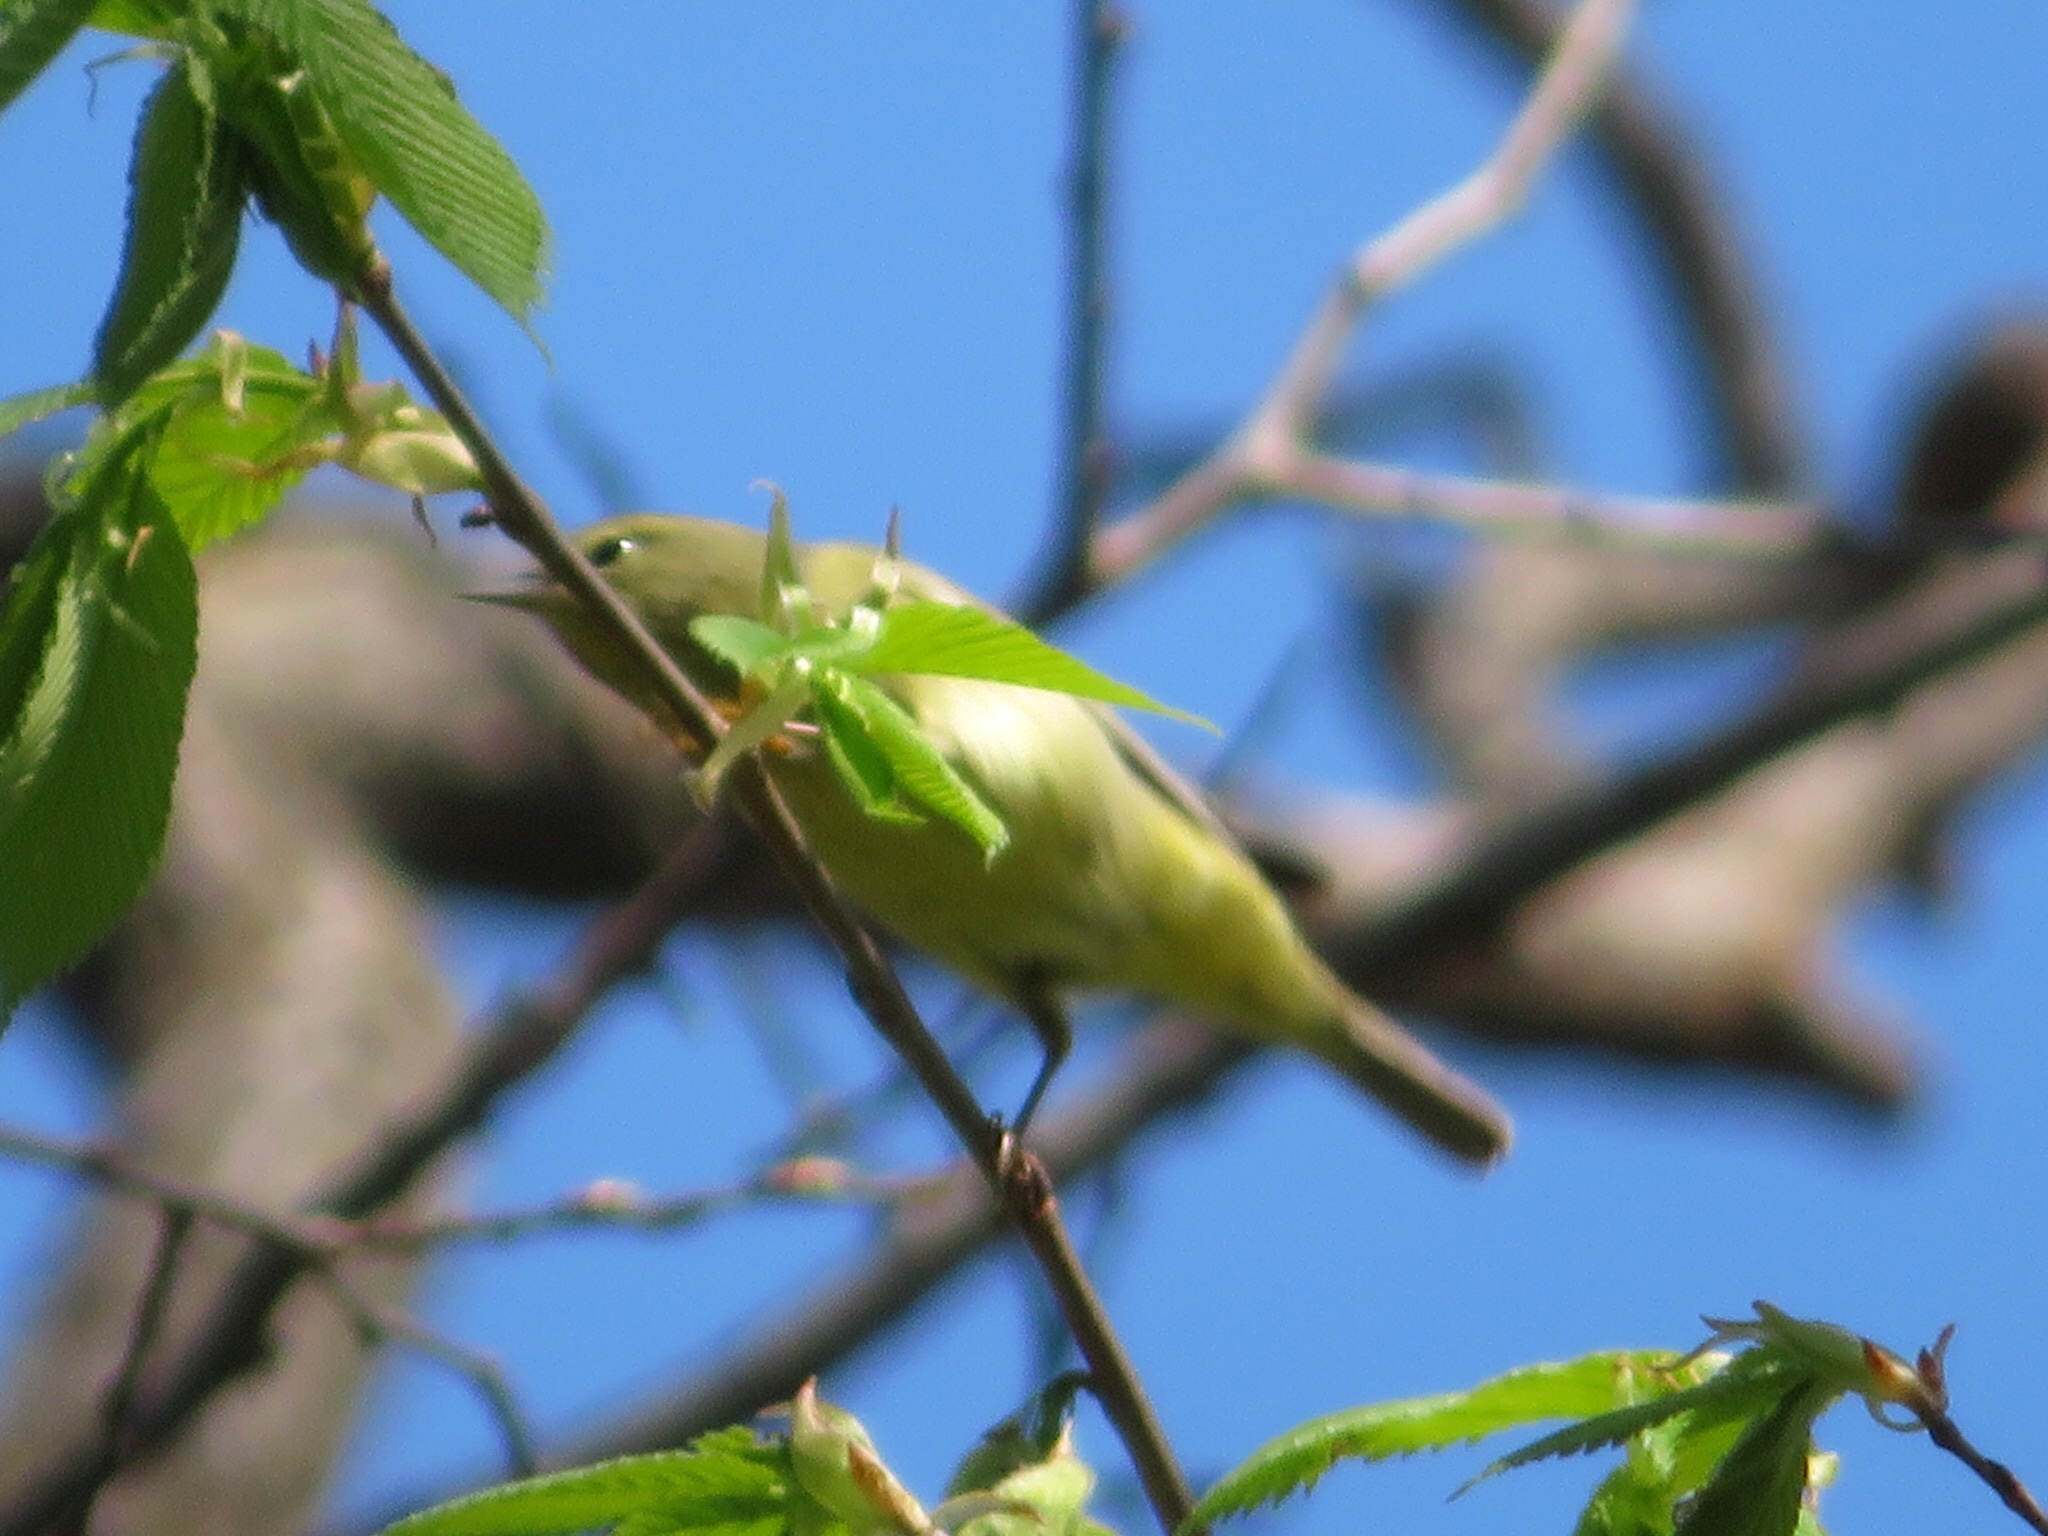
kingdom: Animalia
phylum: Chordata
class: Aves
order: Passeriformes
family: Parulidae
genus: Leiothlypis
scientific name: Leiothlypis celata
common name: Orange-crowned warbler
